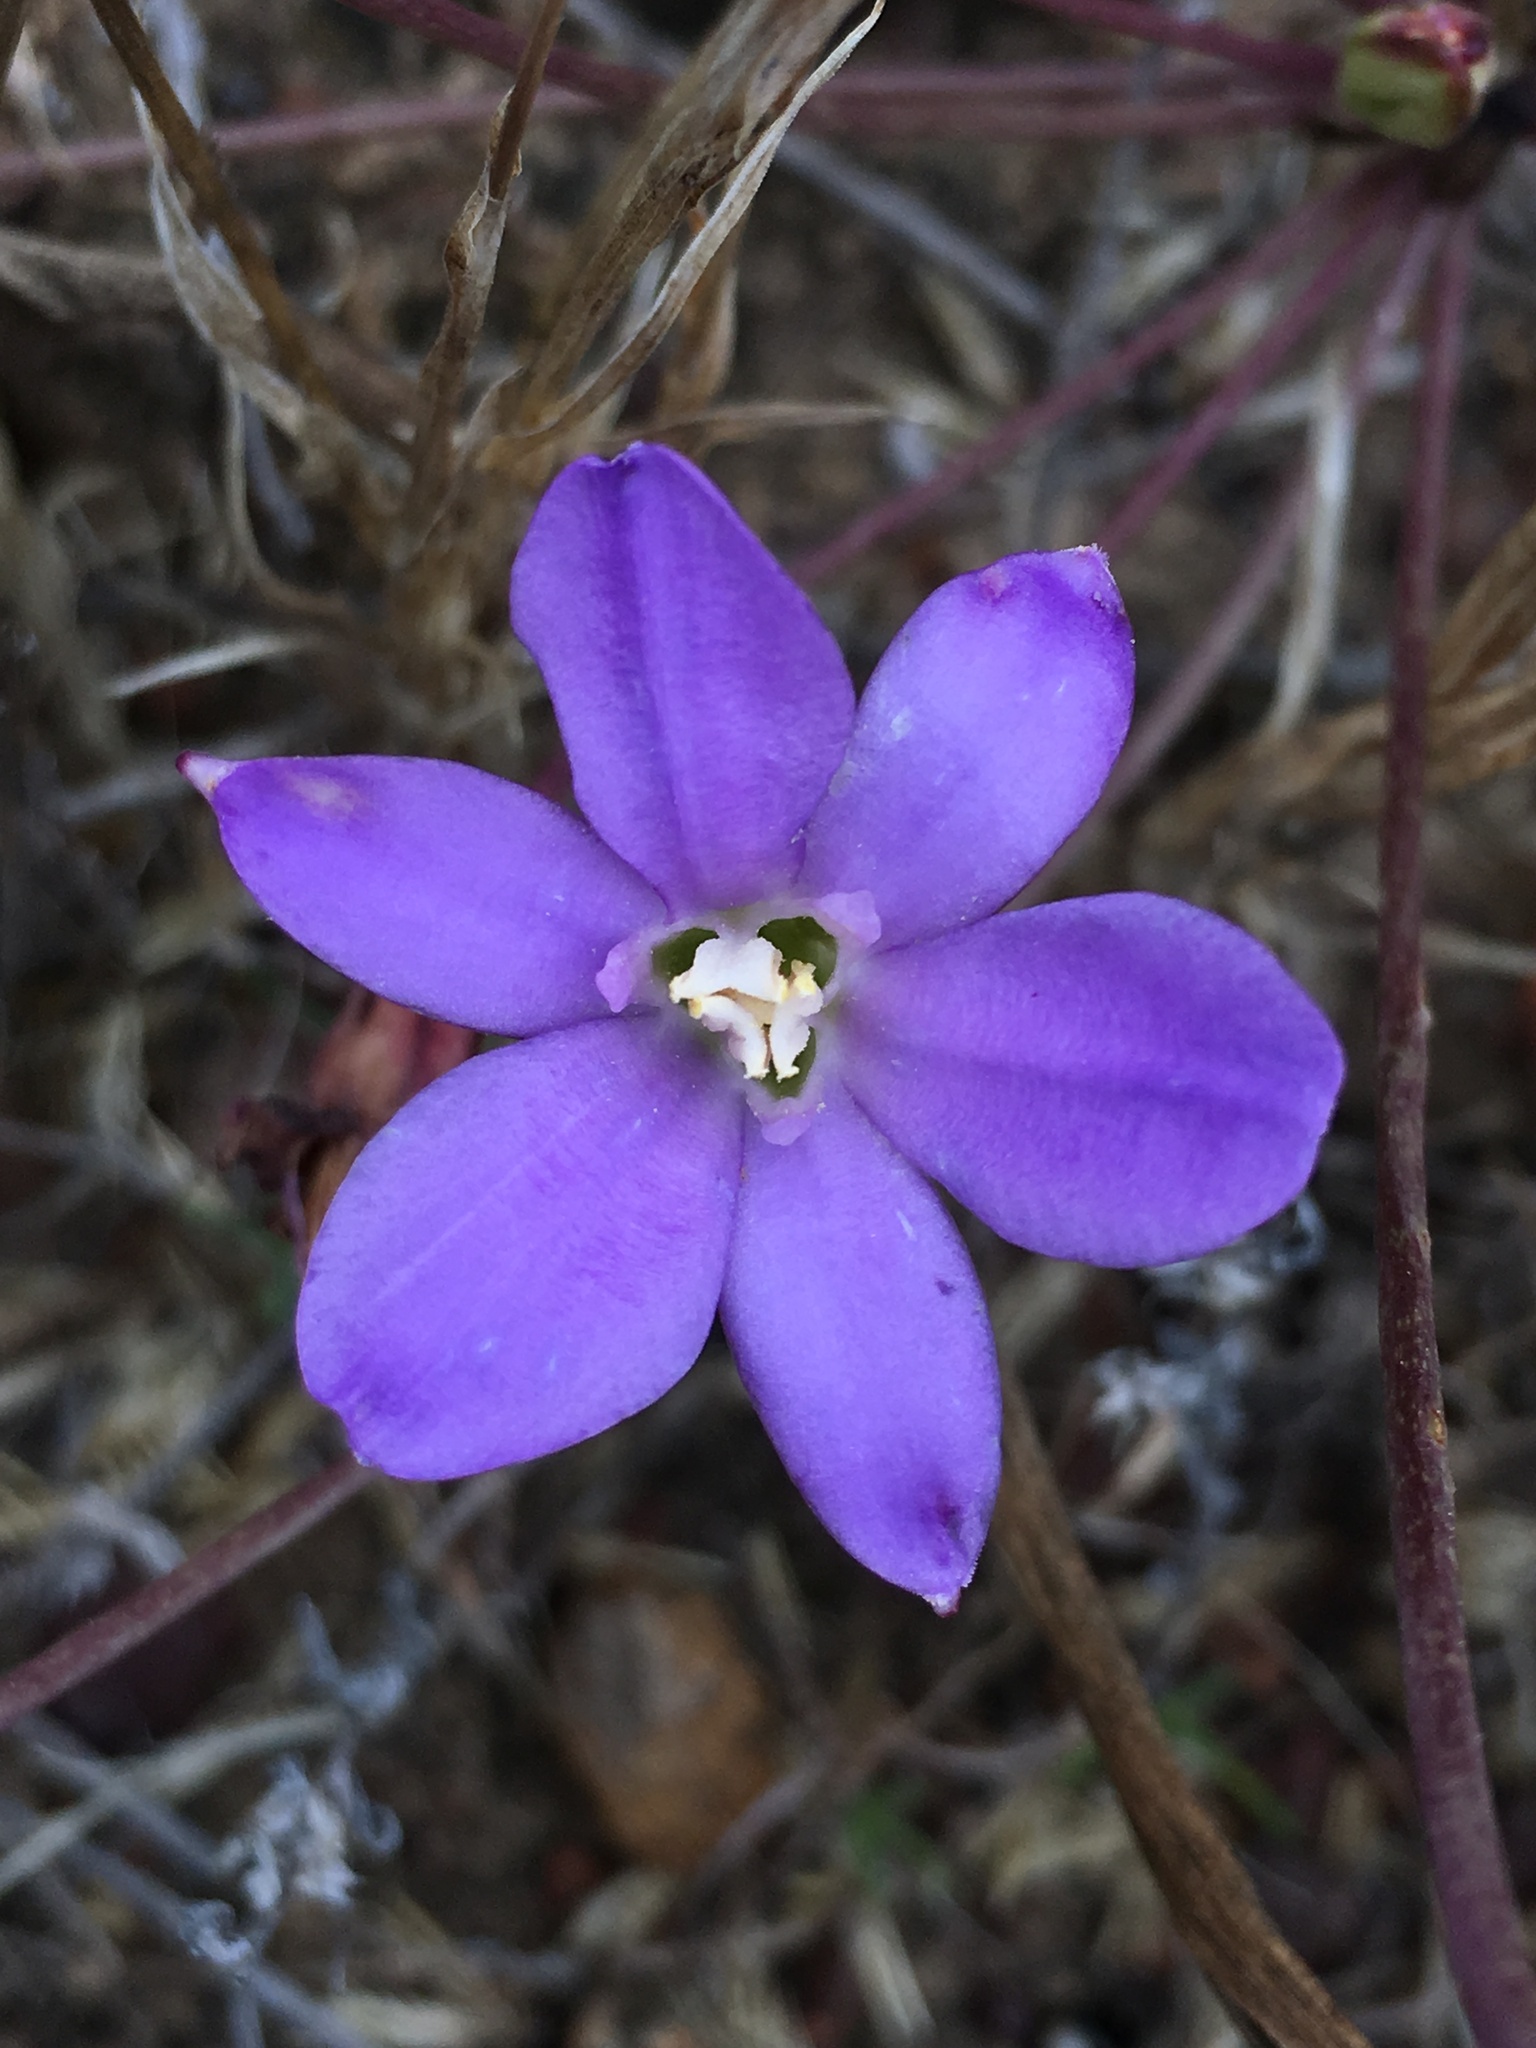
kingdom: Plantae
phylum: Tracheophyta
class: Liliopsida
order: Asparagales
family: Asparagaceae
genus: Brodiaea
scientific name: Brodiaea kinkiensis
